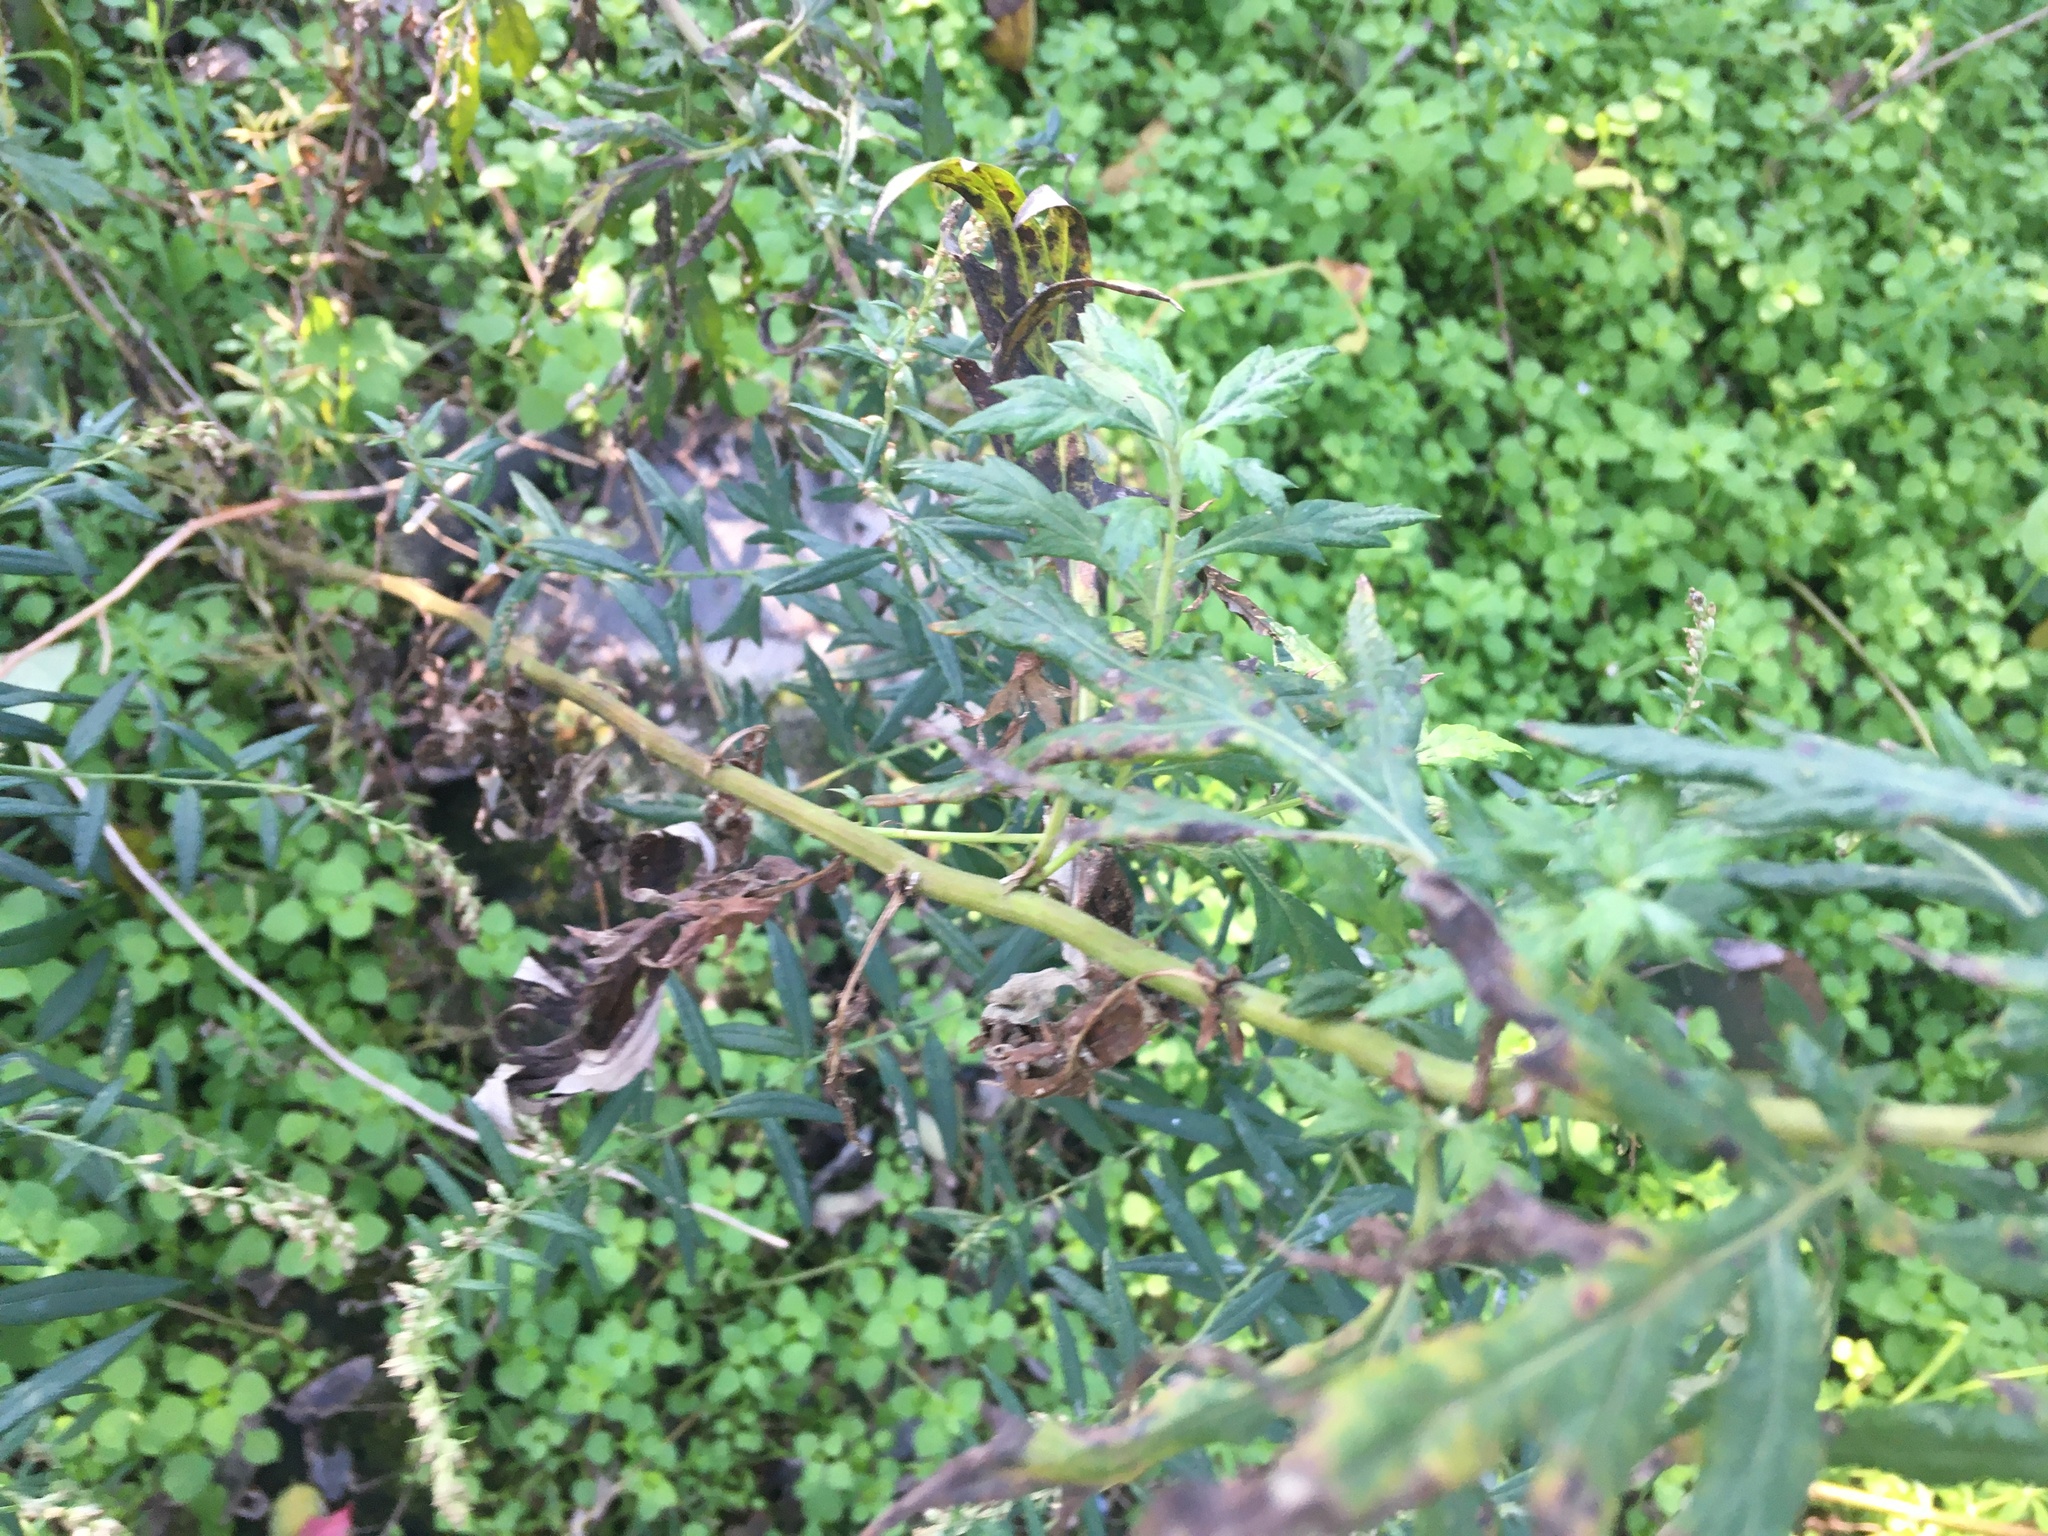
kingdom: Plantae
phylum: Tracheophyta
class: Magnoliopsida
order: Asterales
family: Asteraceae
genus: Artemisia
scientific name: Artemisia vulgaris
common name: Mugwort
